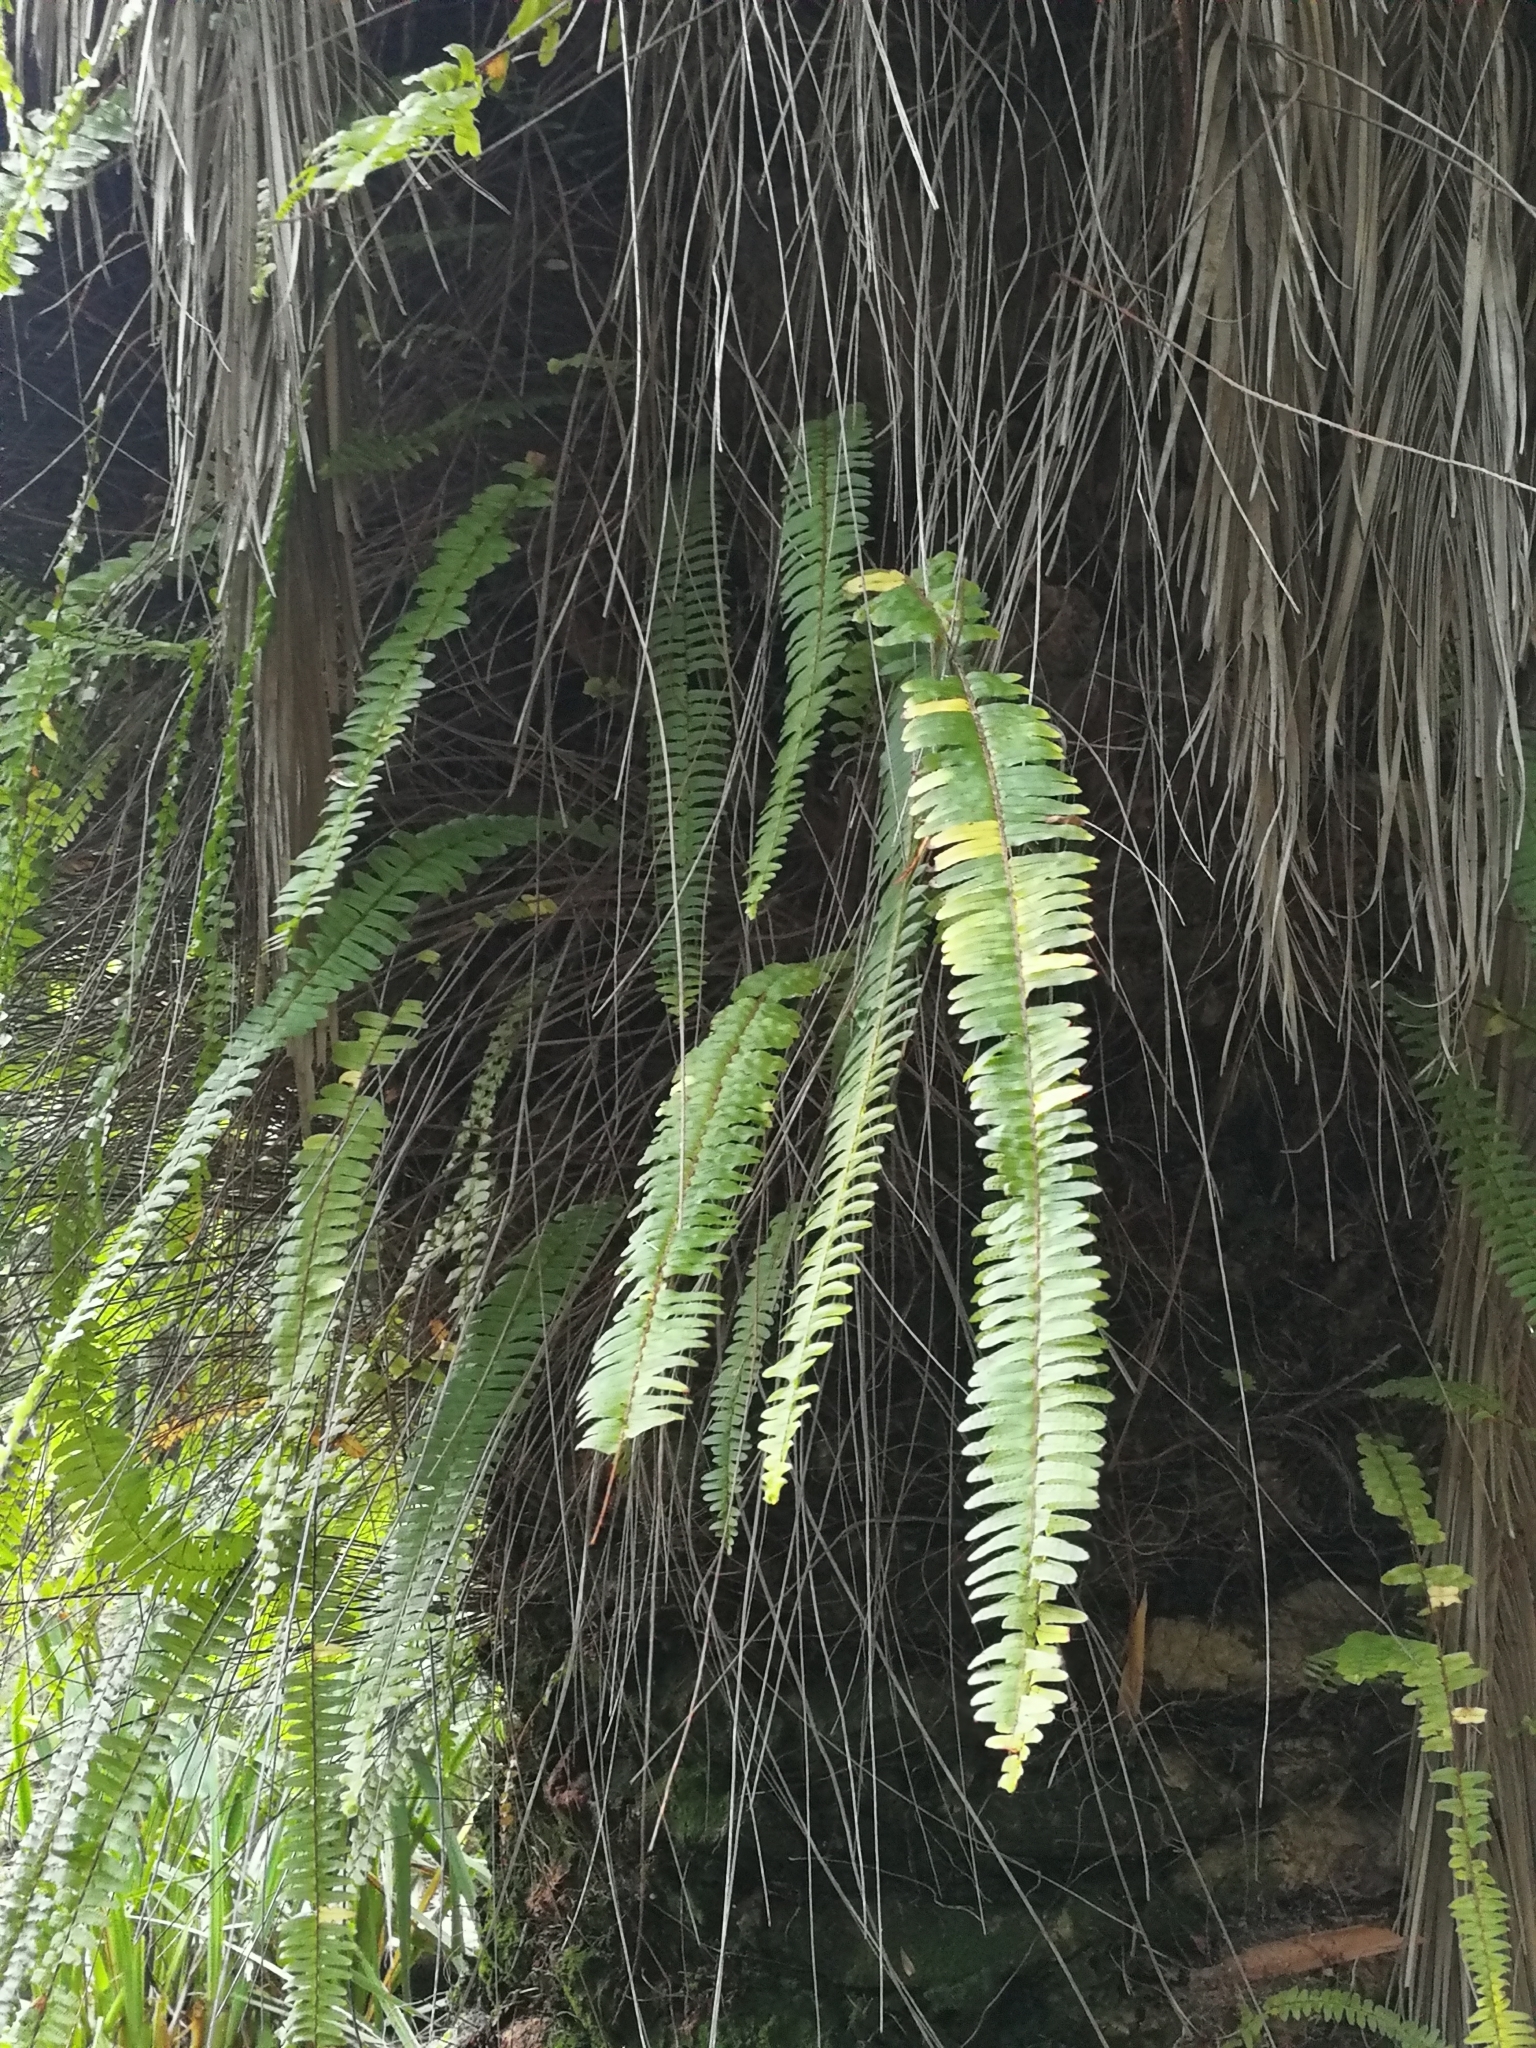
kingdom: Plantae
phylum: Tracheophyta
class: Polypodiopsida
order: Polypodiales
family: Nephrolepidaceae
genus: Nephrolepis
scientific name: Nephrolepis cordifolia
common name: Narrow swordfern
